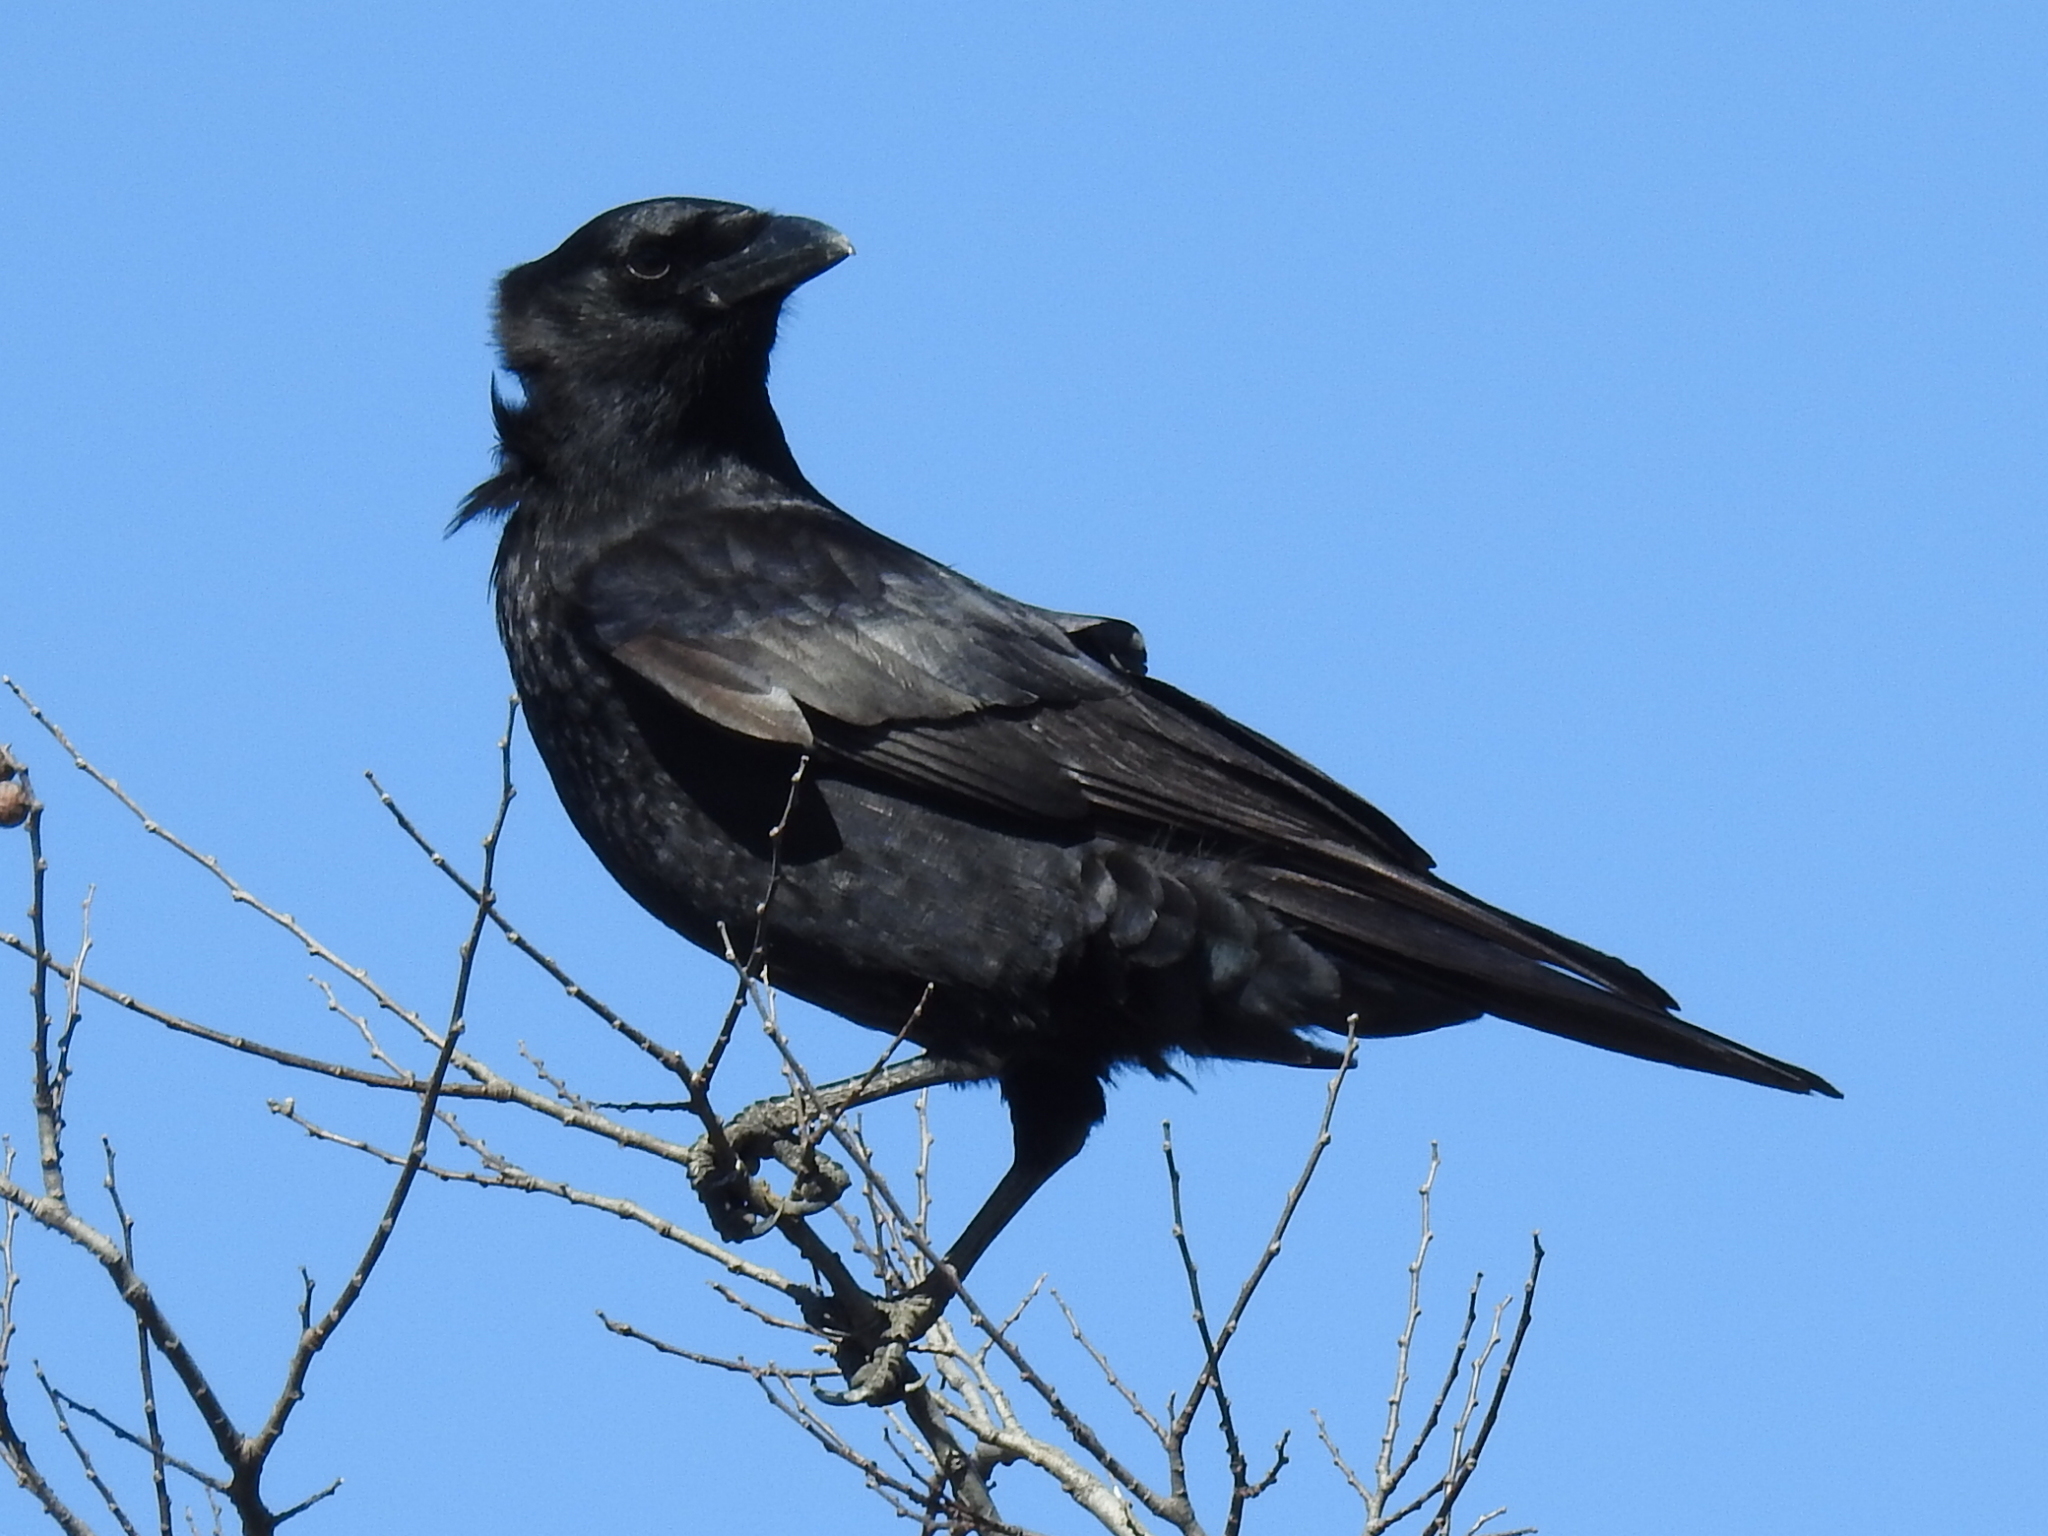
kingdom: Animalia
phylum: Chordata
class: Aves
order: Passeriformes
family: Corvidae
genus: Corvus
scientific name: Corvus brachyrhynchos
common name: American crow
